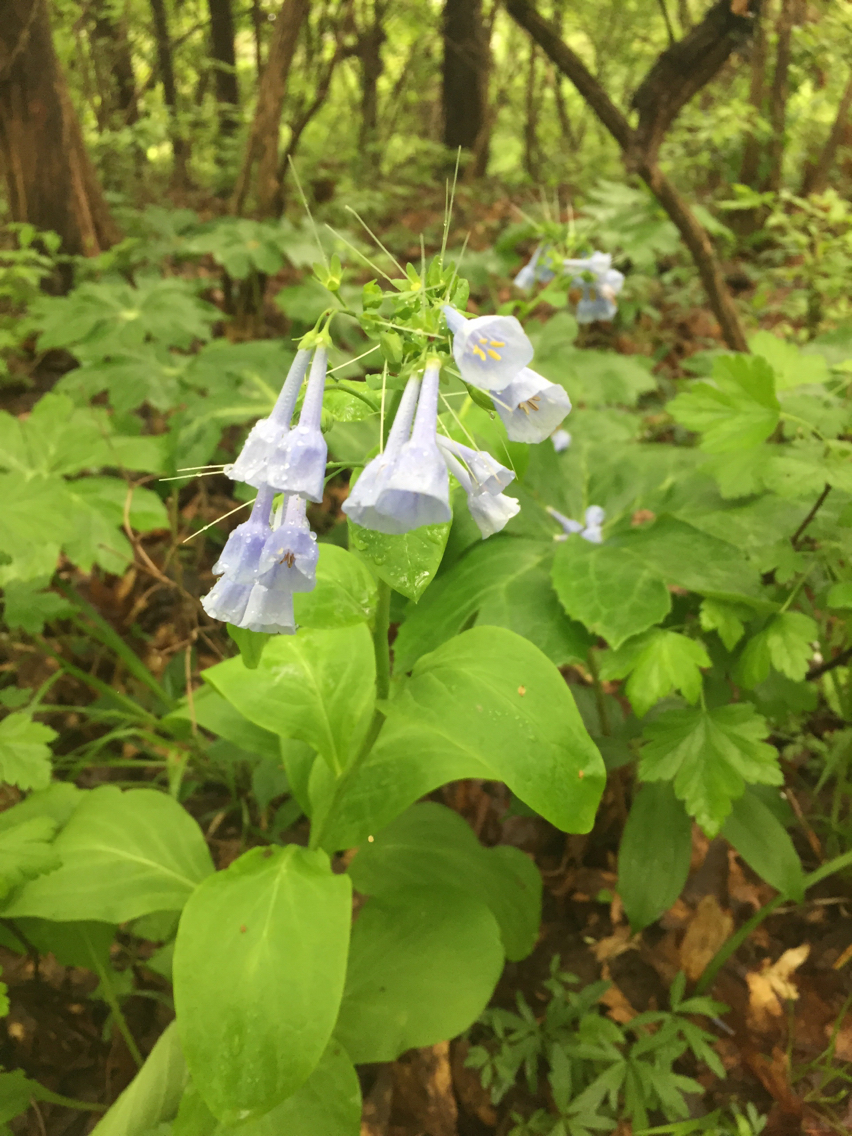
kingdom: Plantae
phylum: Tracheophyta
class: Magnoliopsida
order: Boraginales
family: Boraginaceae
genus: Mertensia
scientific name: Mertensia virginica
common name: Virginia bluebells
